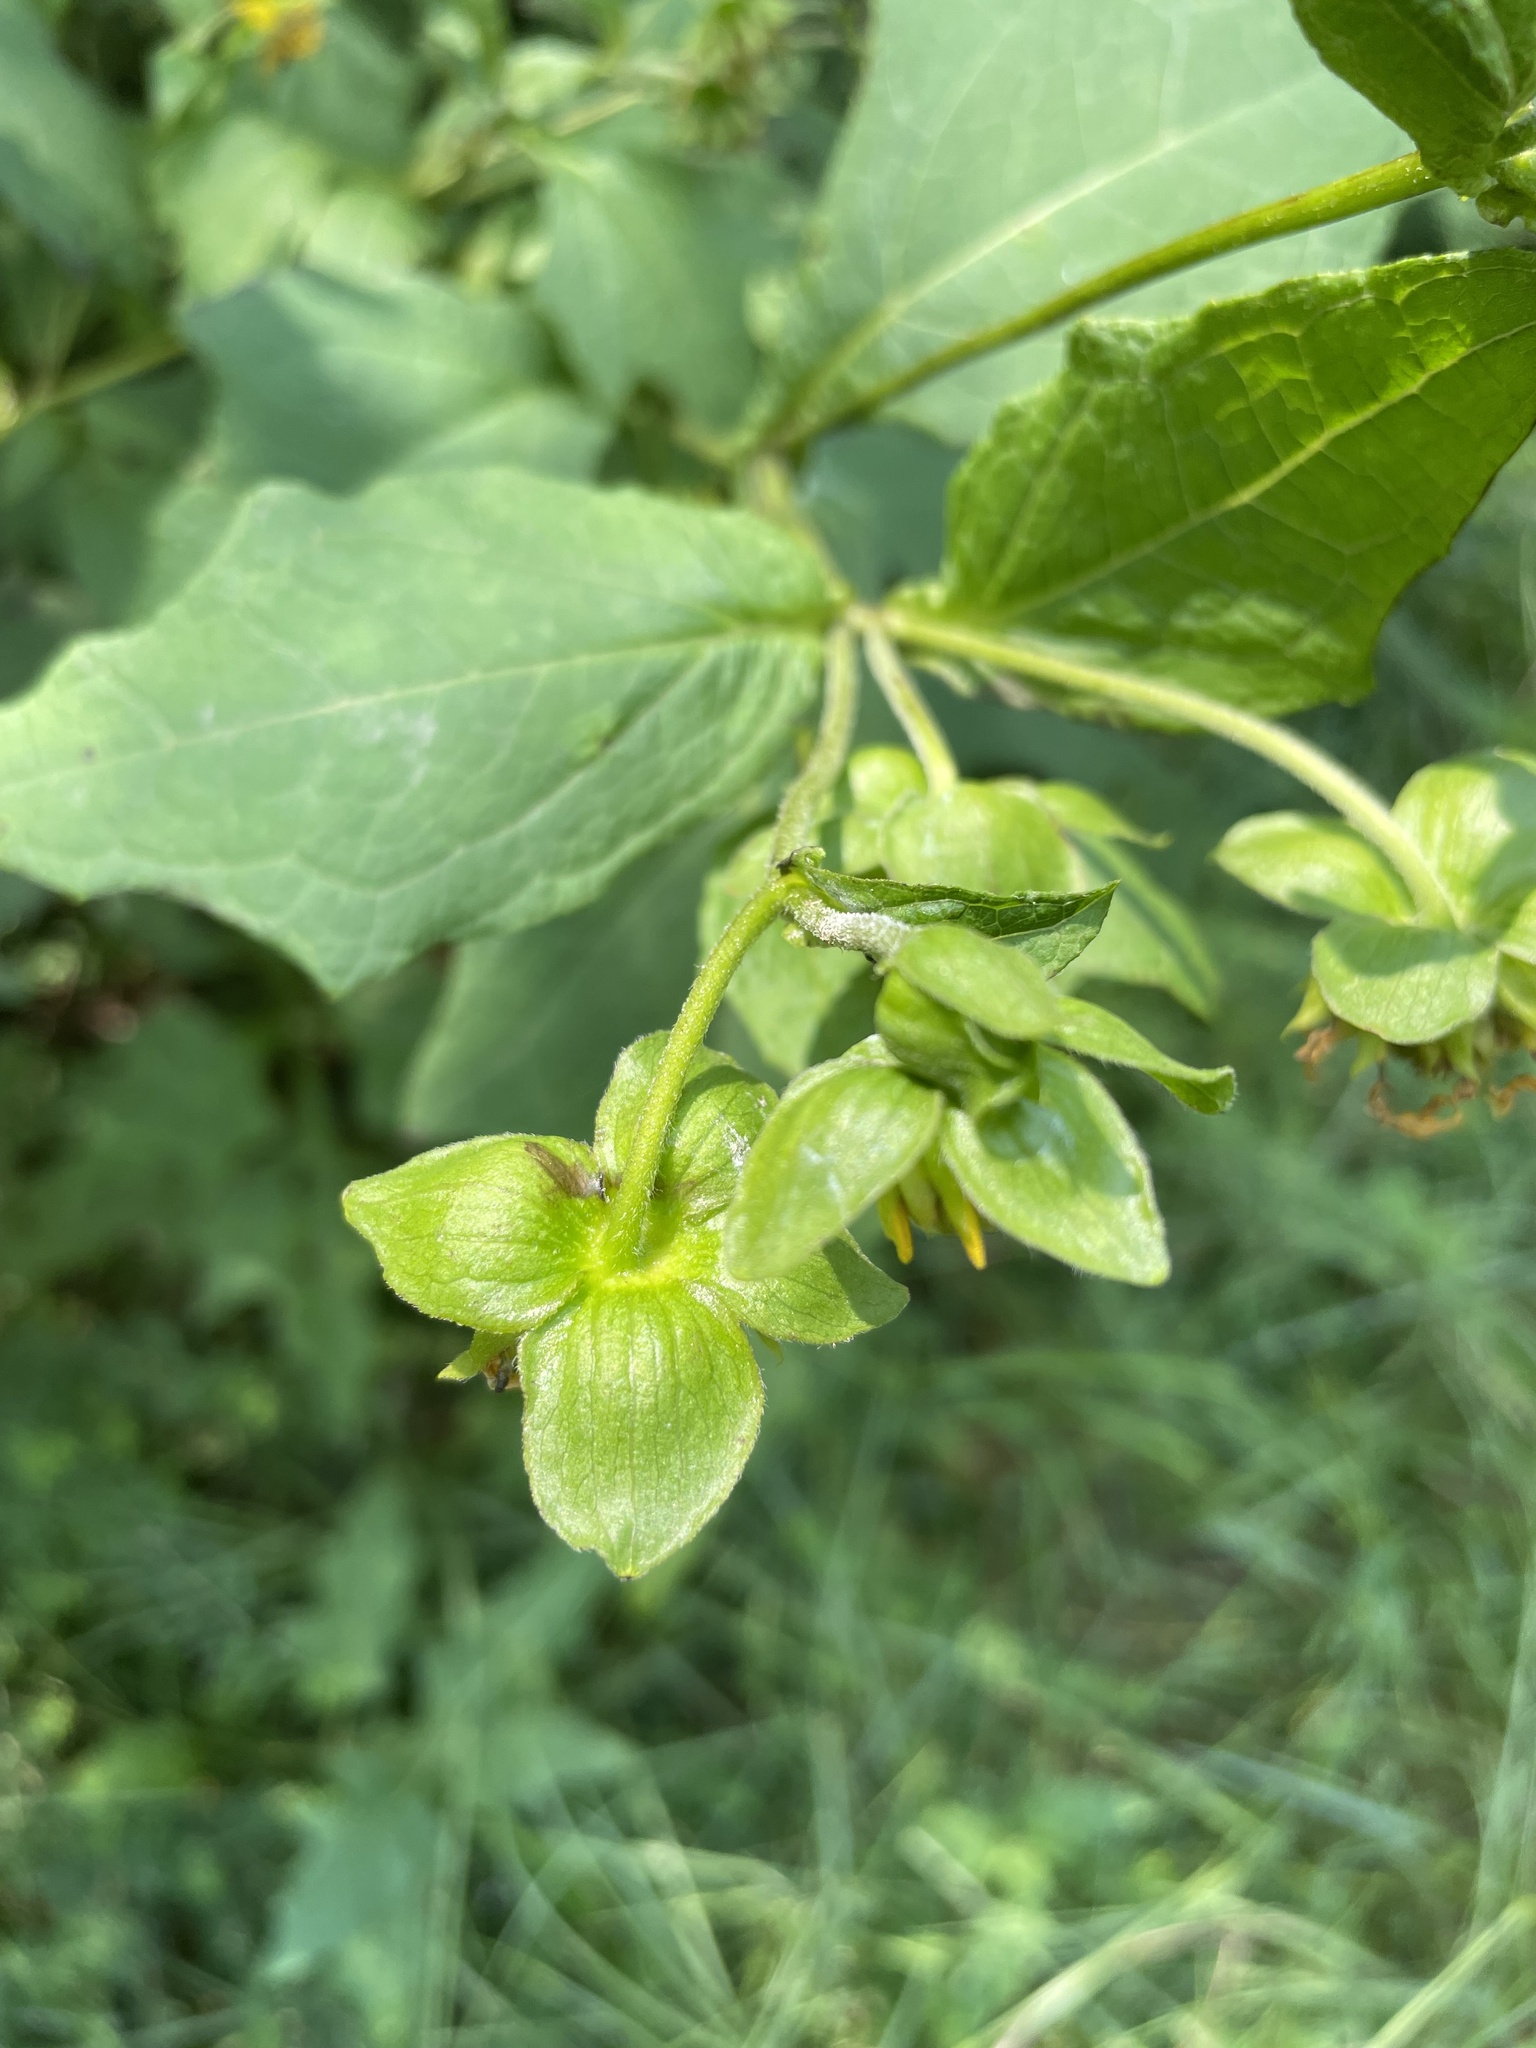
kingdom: Plantae
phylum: Tracheophyta
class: Magnoliopsida
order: Asterales
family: Asteraceae
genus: Smallanthus
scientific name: Smallanthus uvedalia
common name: Bear's-foot
